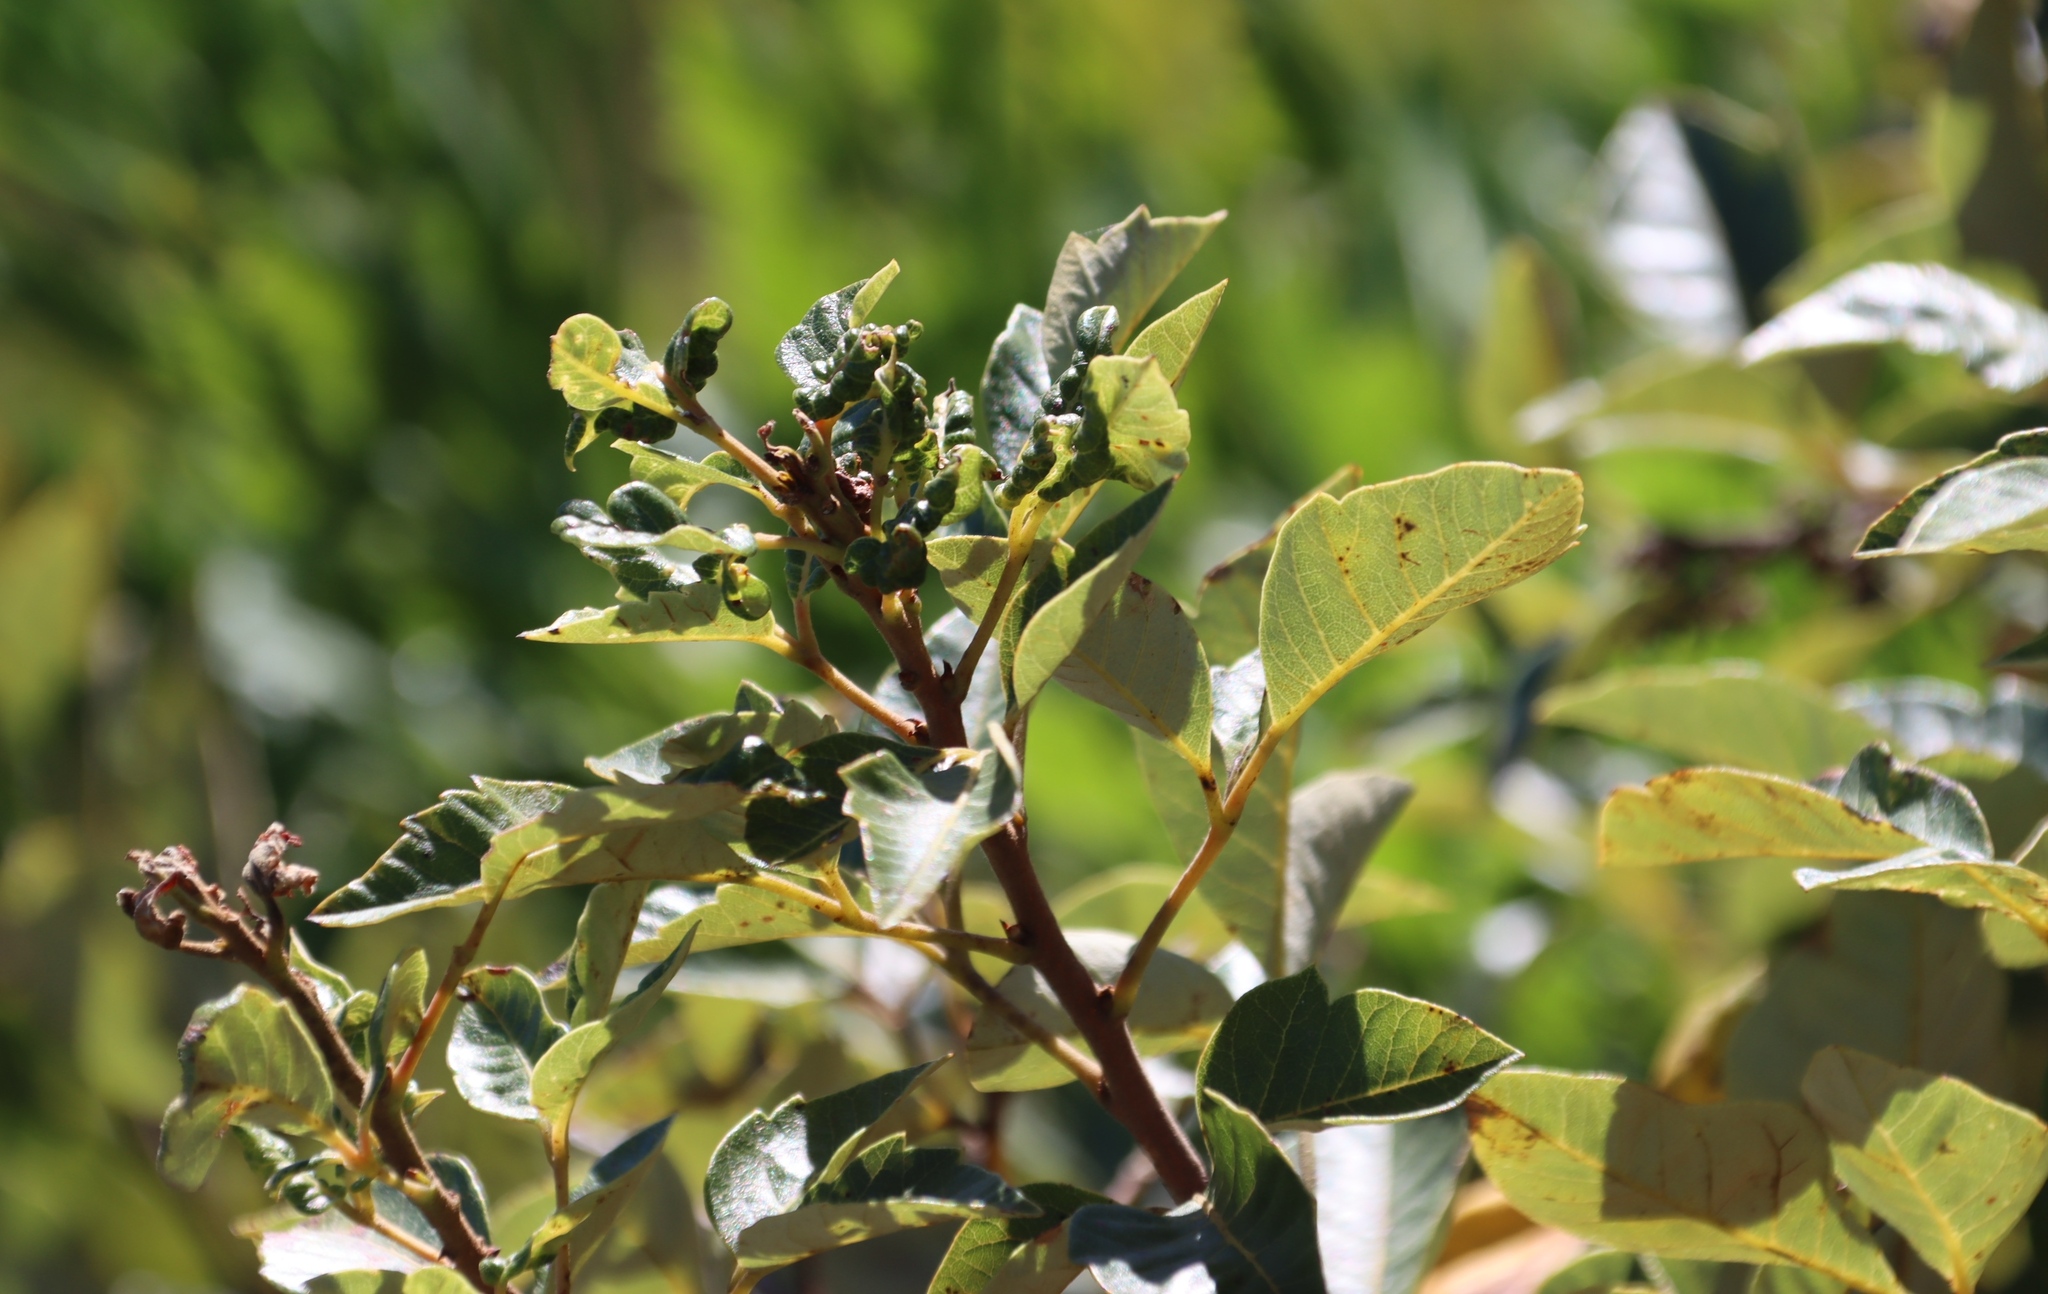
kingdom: Plantae
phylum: Tracheophyta
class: Magnoliopsida
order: Sapindales
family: Anacardiaceae
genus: Searsia
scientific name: Searsia tomentosa
